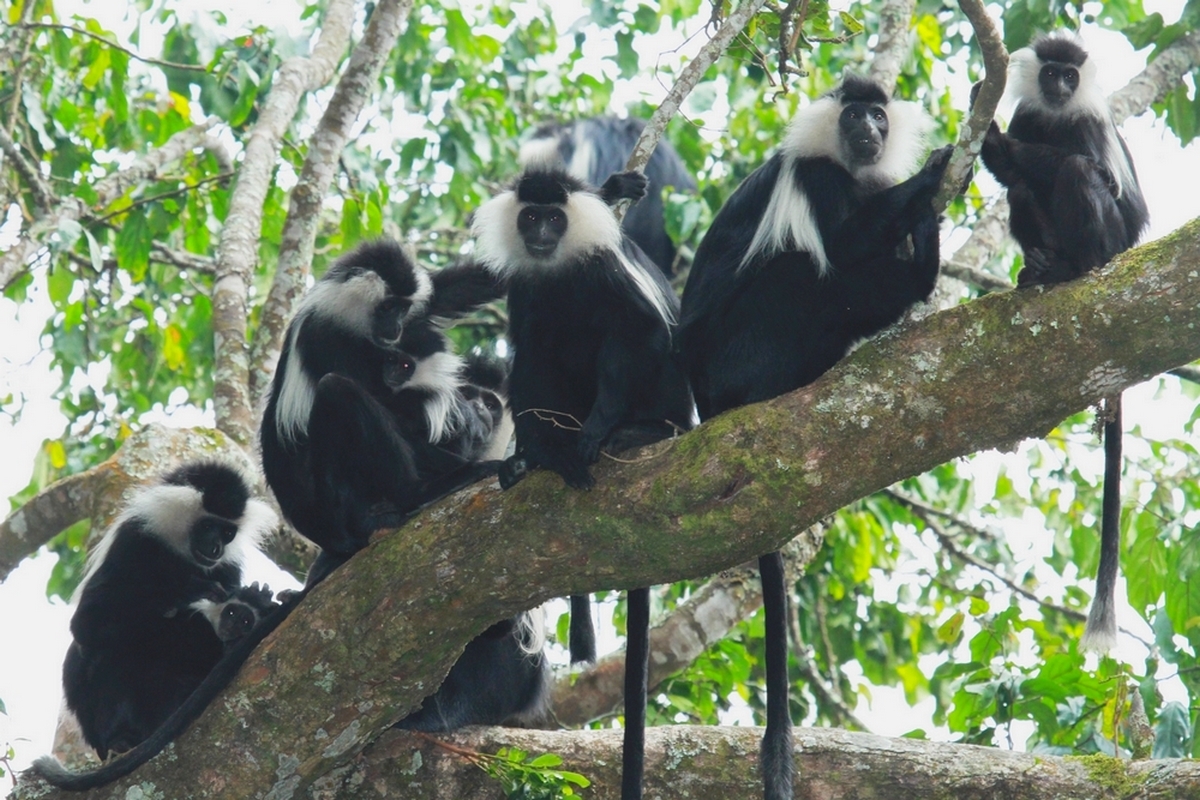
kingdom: Animalia
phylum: Chordata
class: Mammalia
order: Primates
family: Cercopithecidae
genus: Colobus
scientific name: Colobus angolensis
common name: Angola colobus
